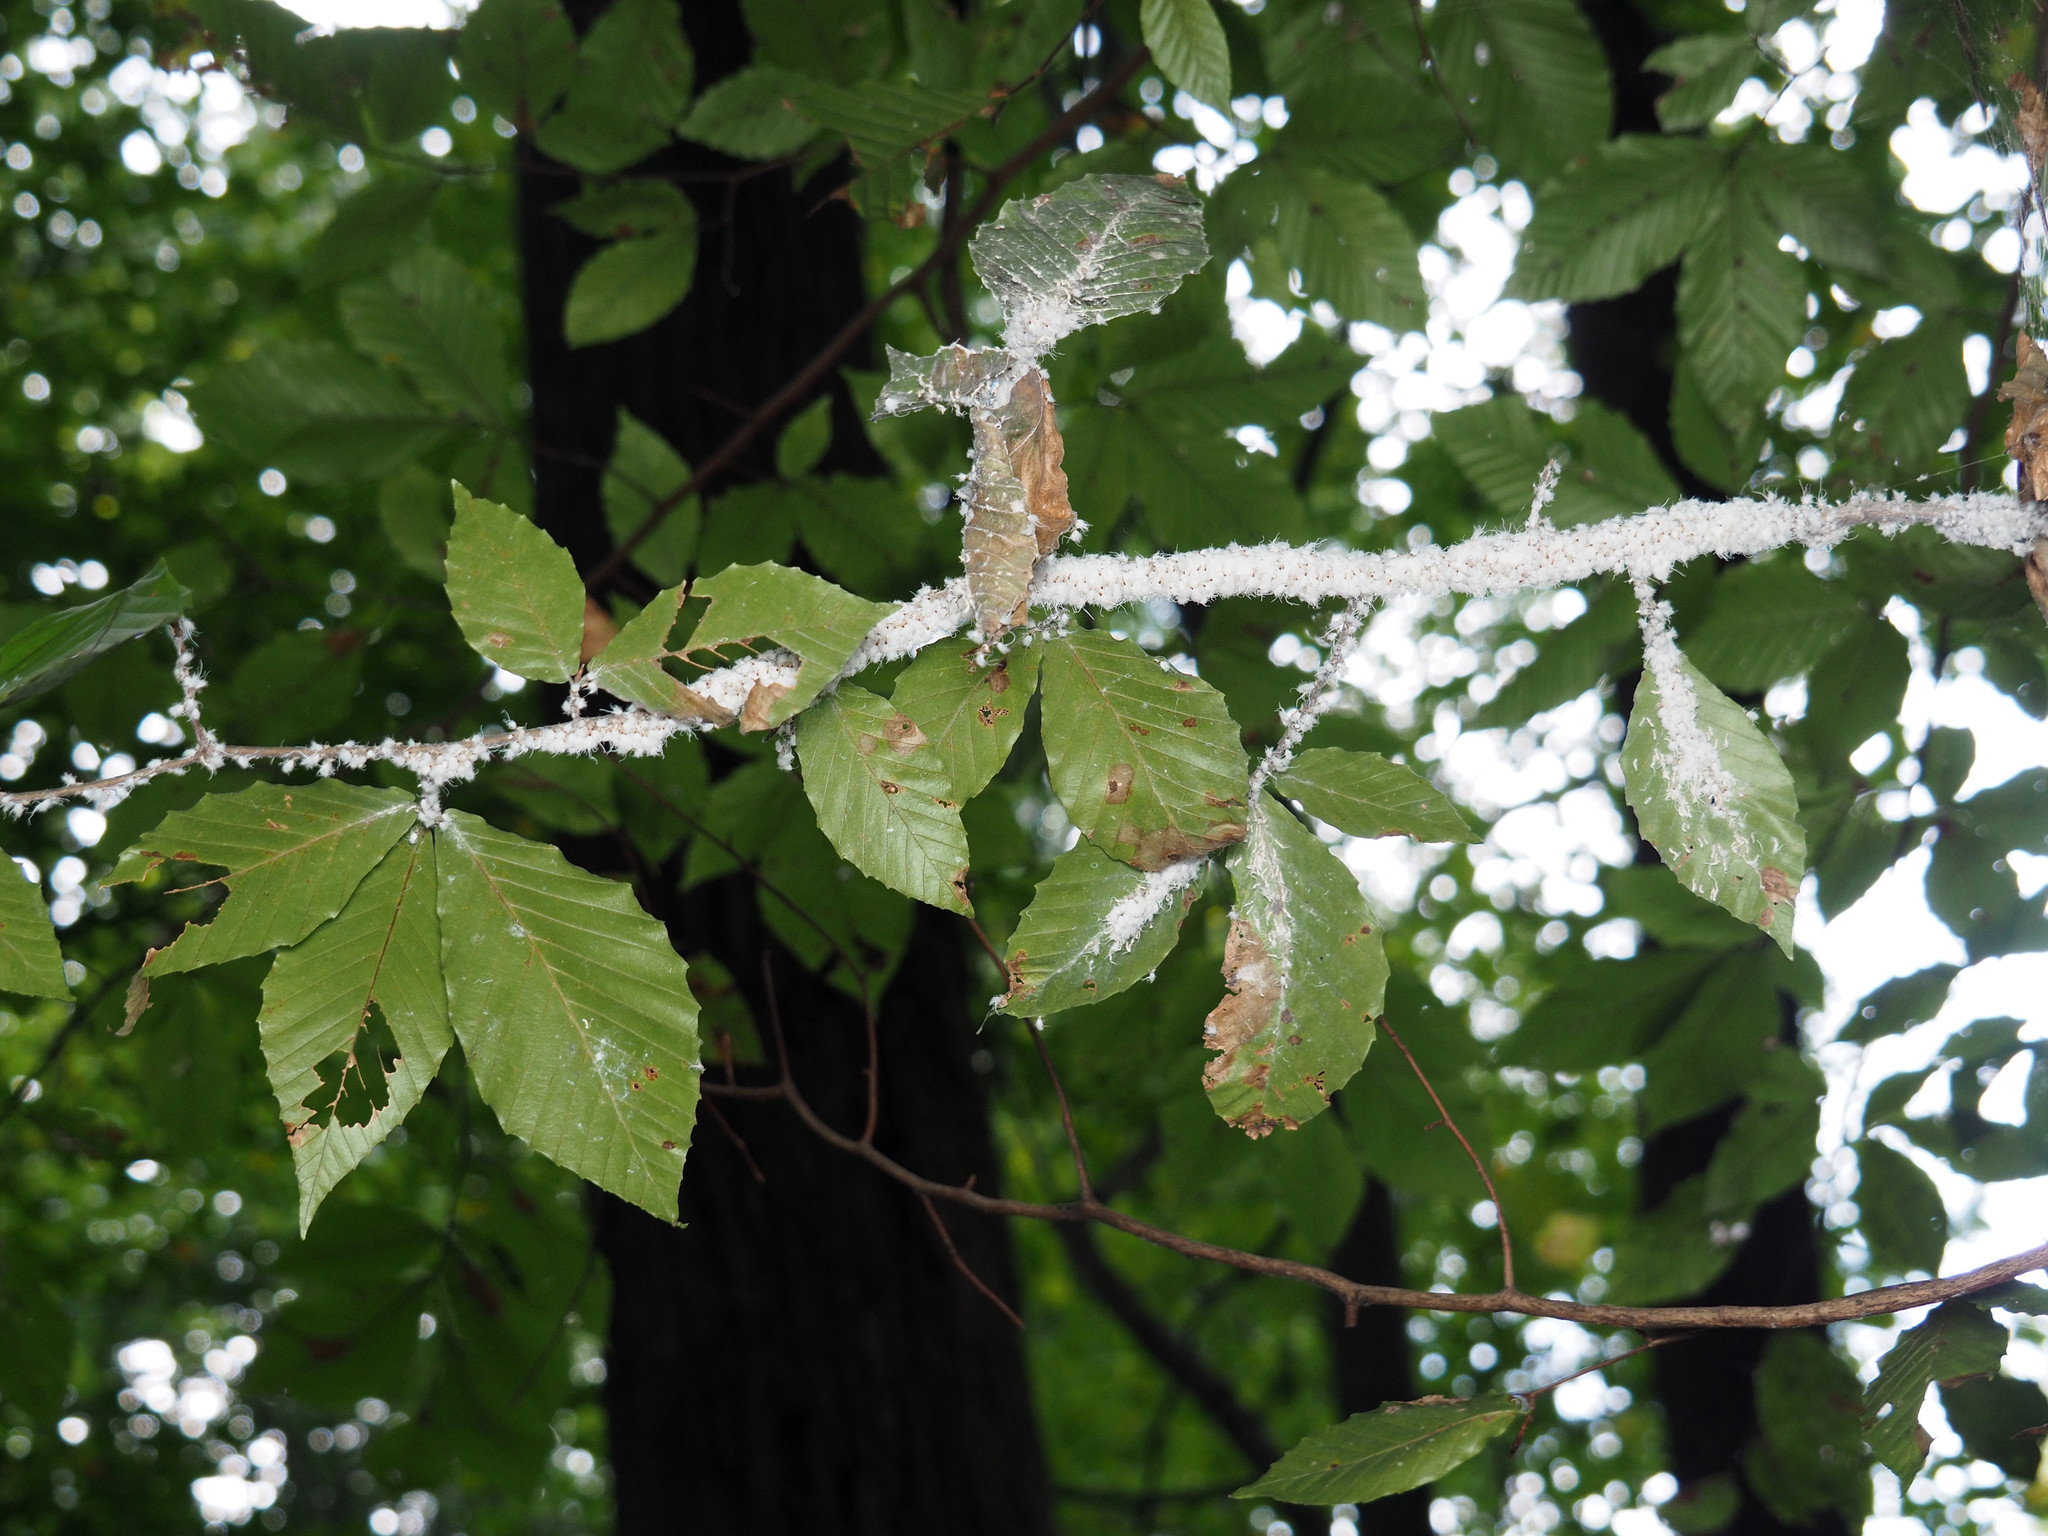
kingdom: Animalia
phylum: Arthropoda
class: Insecta
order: Hemiptera
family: Aphididae
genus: Grylloprociphilus
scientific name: Grylloprociphilus imbricator
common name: Beech blight aphid
